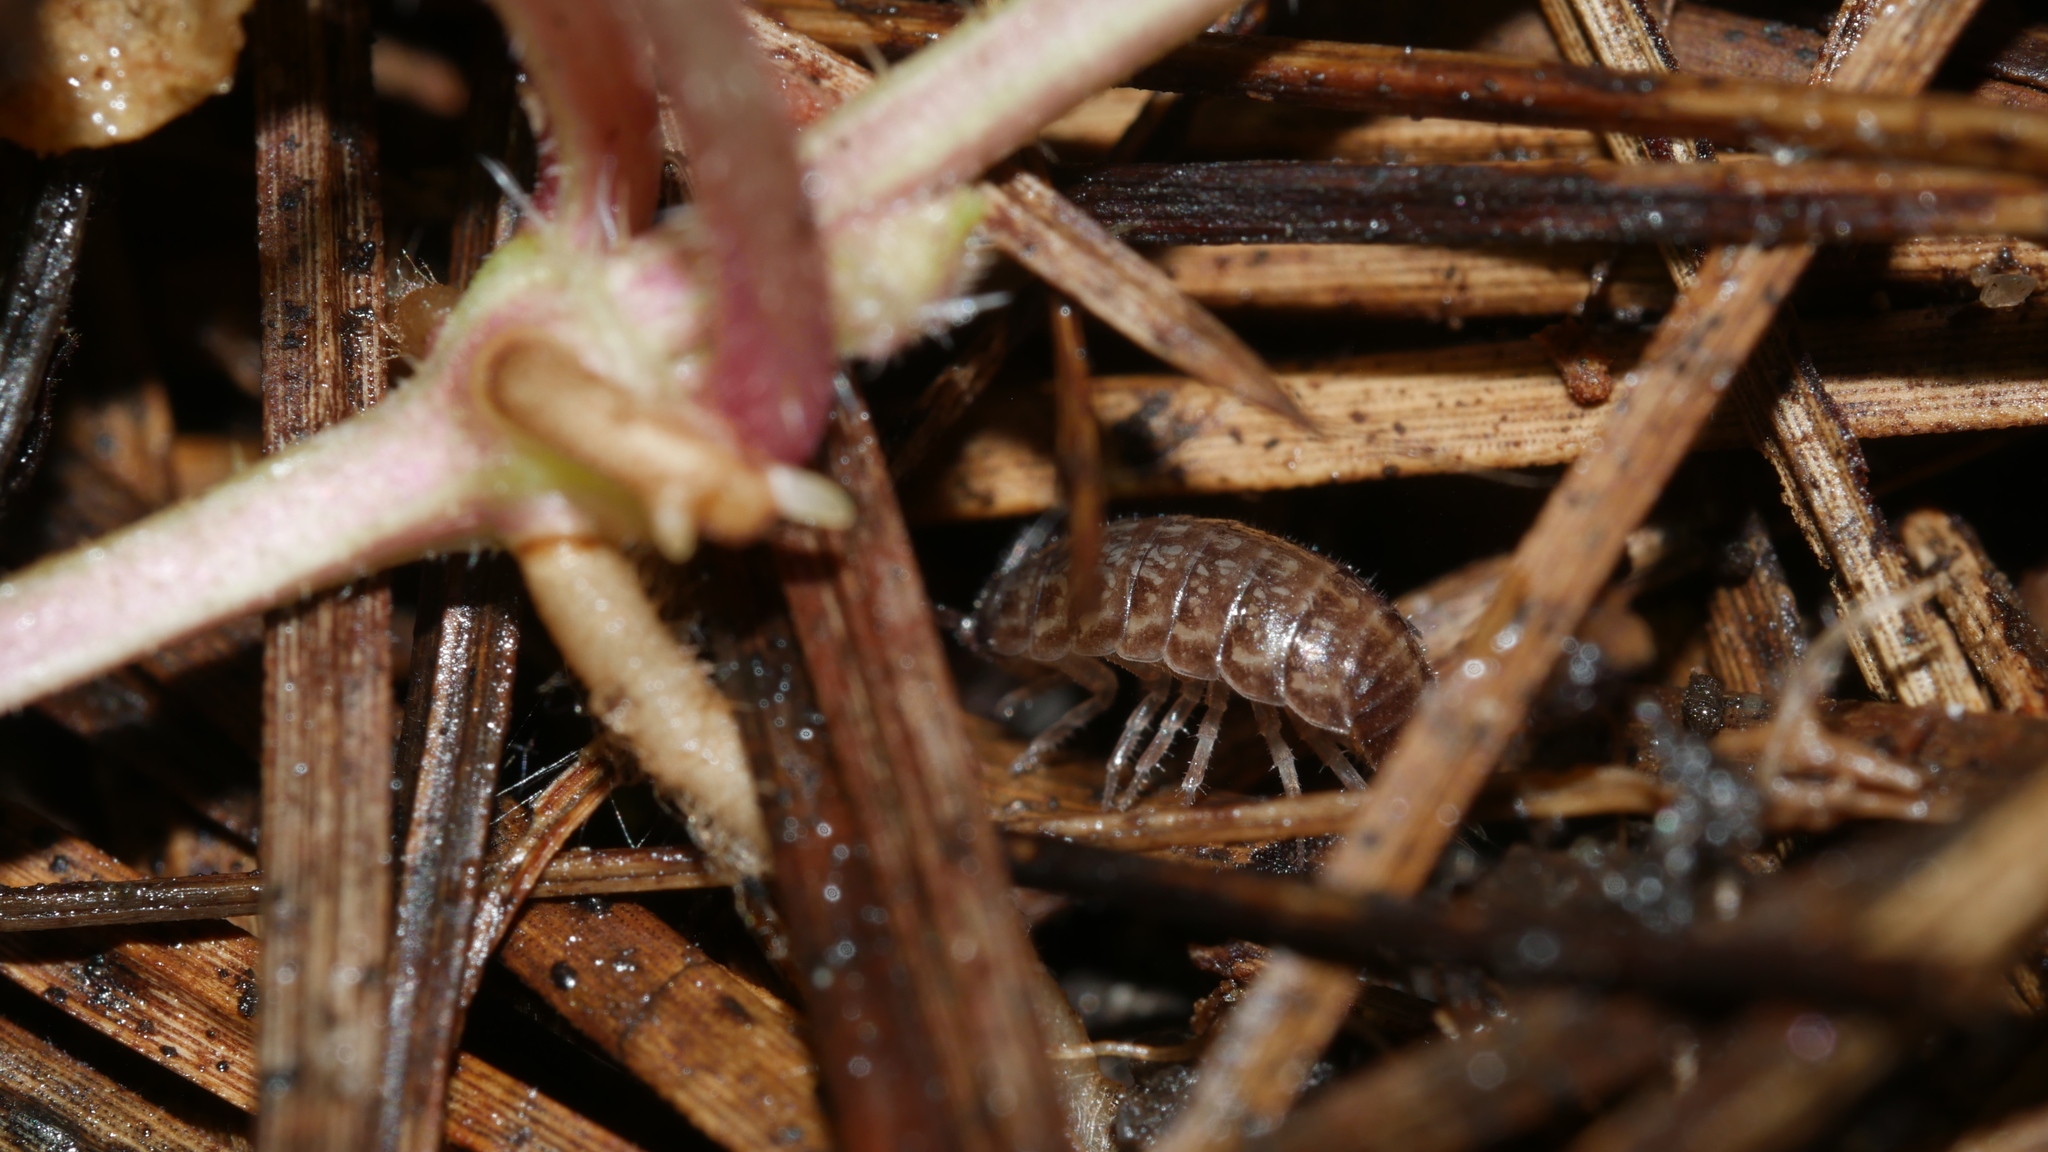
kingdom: Animalia
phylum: Arthropoda
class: Malacostraca
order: Isopoda
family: Philosciidae
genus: Chaetophiloscia
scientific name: Chaetophiloscia sicula
